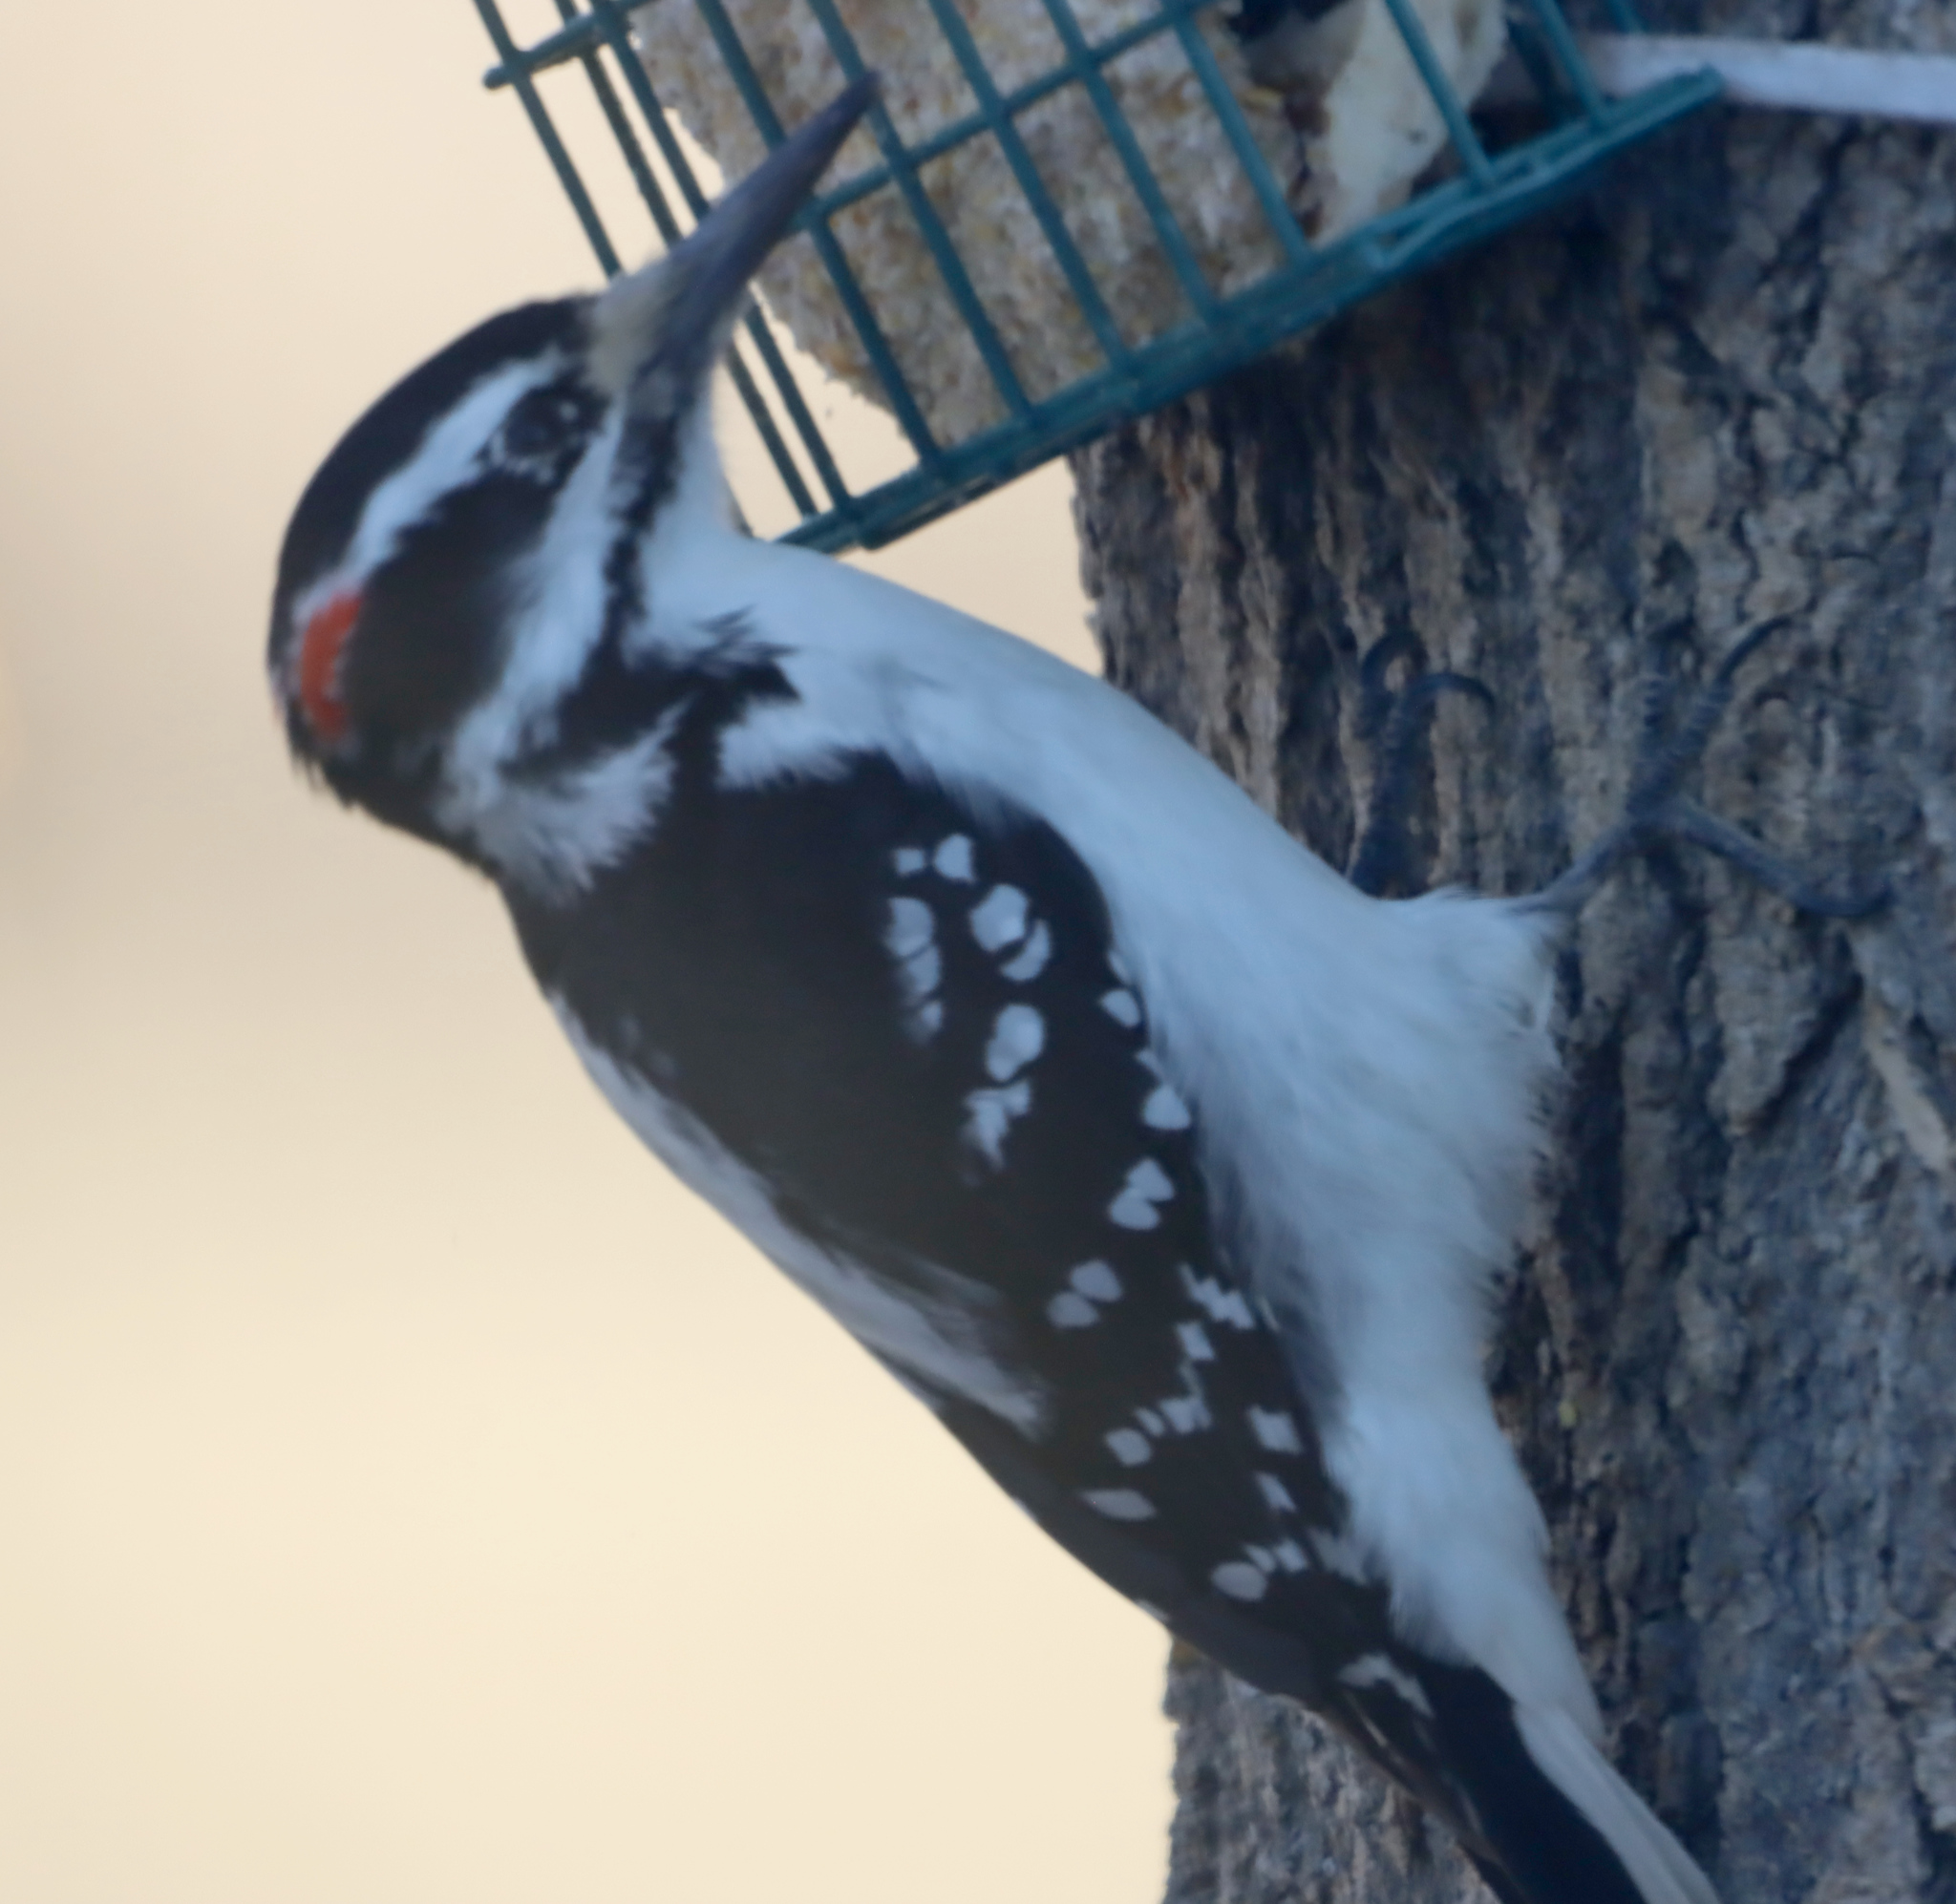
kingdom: Animalia
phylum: Chordata
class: Aves
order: Piciformes
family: Picidae
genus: Leuconotopicus
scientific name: Leuconotopicus villosus
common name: Hairy woodpecker
